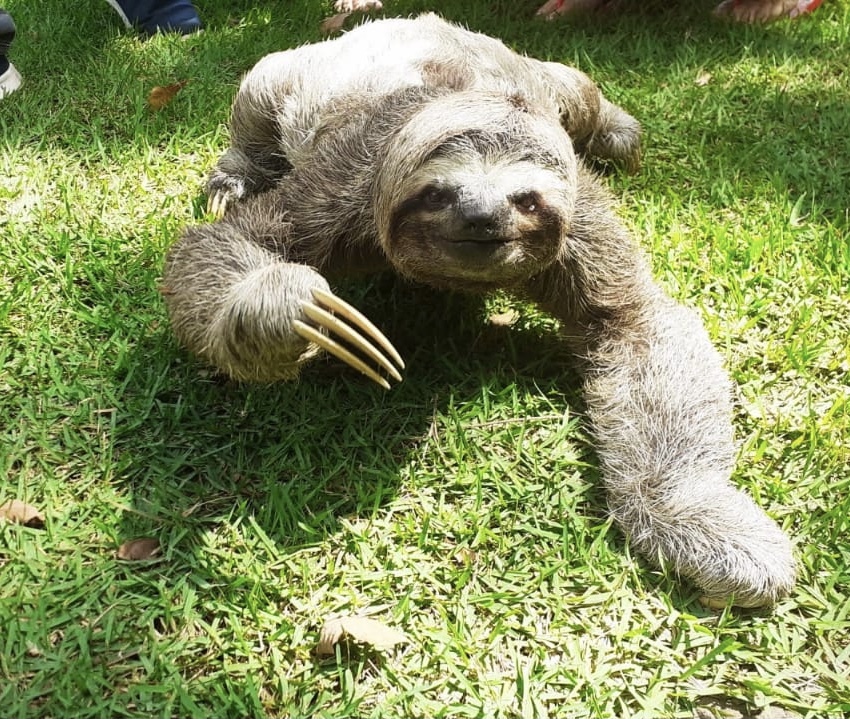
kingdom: Animalia
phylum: Chordata
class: Mammalia
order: Pilosa
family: Bradypodidae
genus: Bradypus
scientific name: Bradypus variegatus
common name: Brown-throated three-toed sloth
